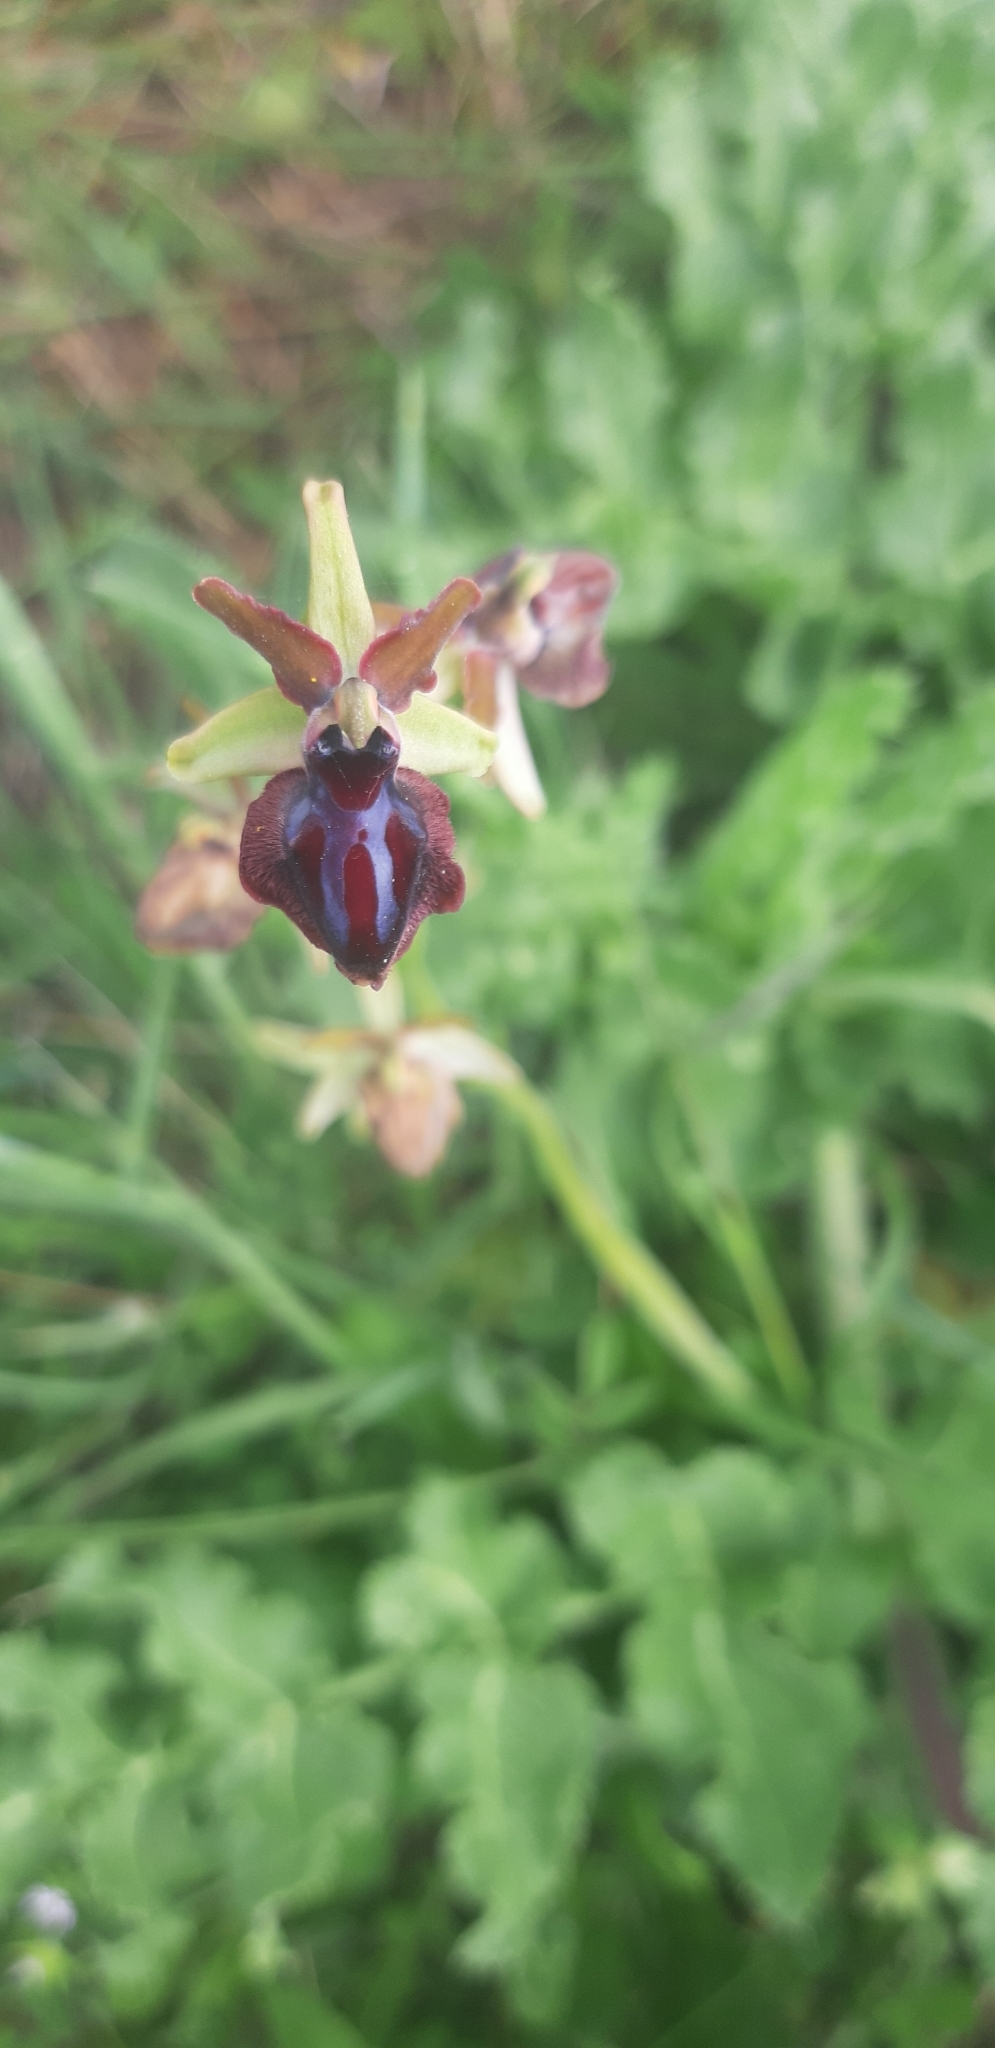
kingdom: Plantae
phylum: Tracheophyta
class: Liliopsida
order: Asparagales
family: Orchidaceae
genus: Ophrys
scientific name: Ophrys sphegodes
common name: Early spider-orchid
